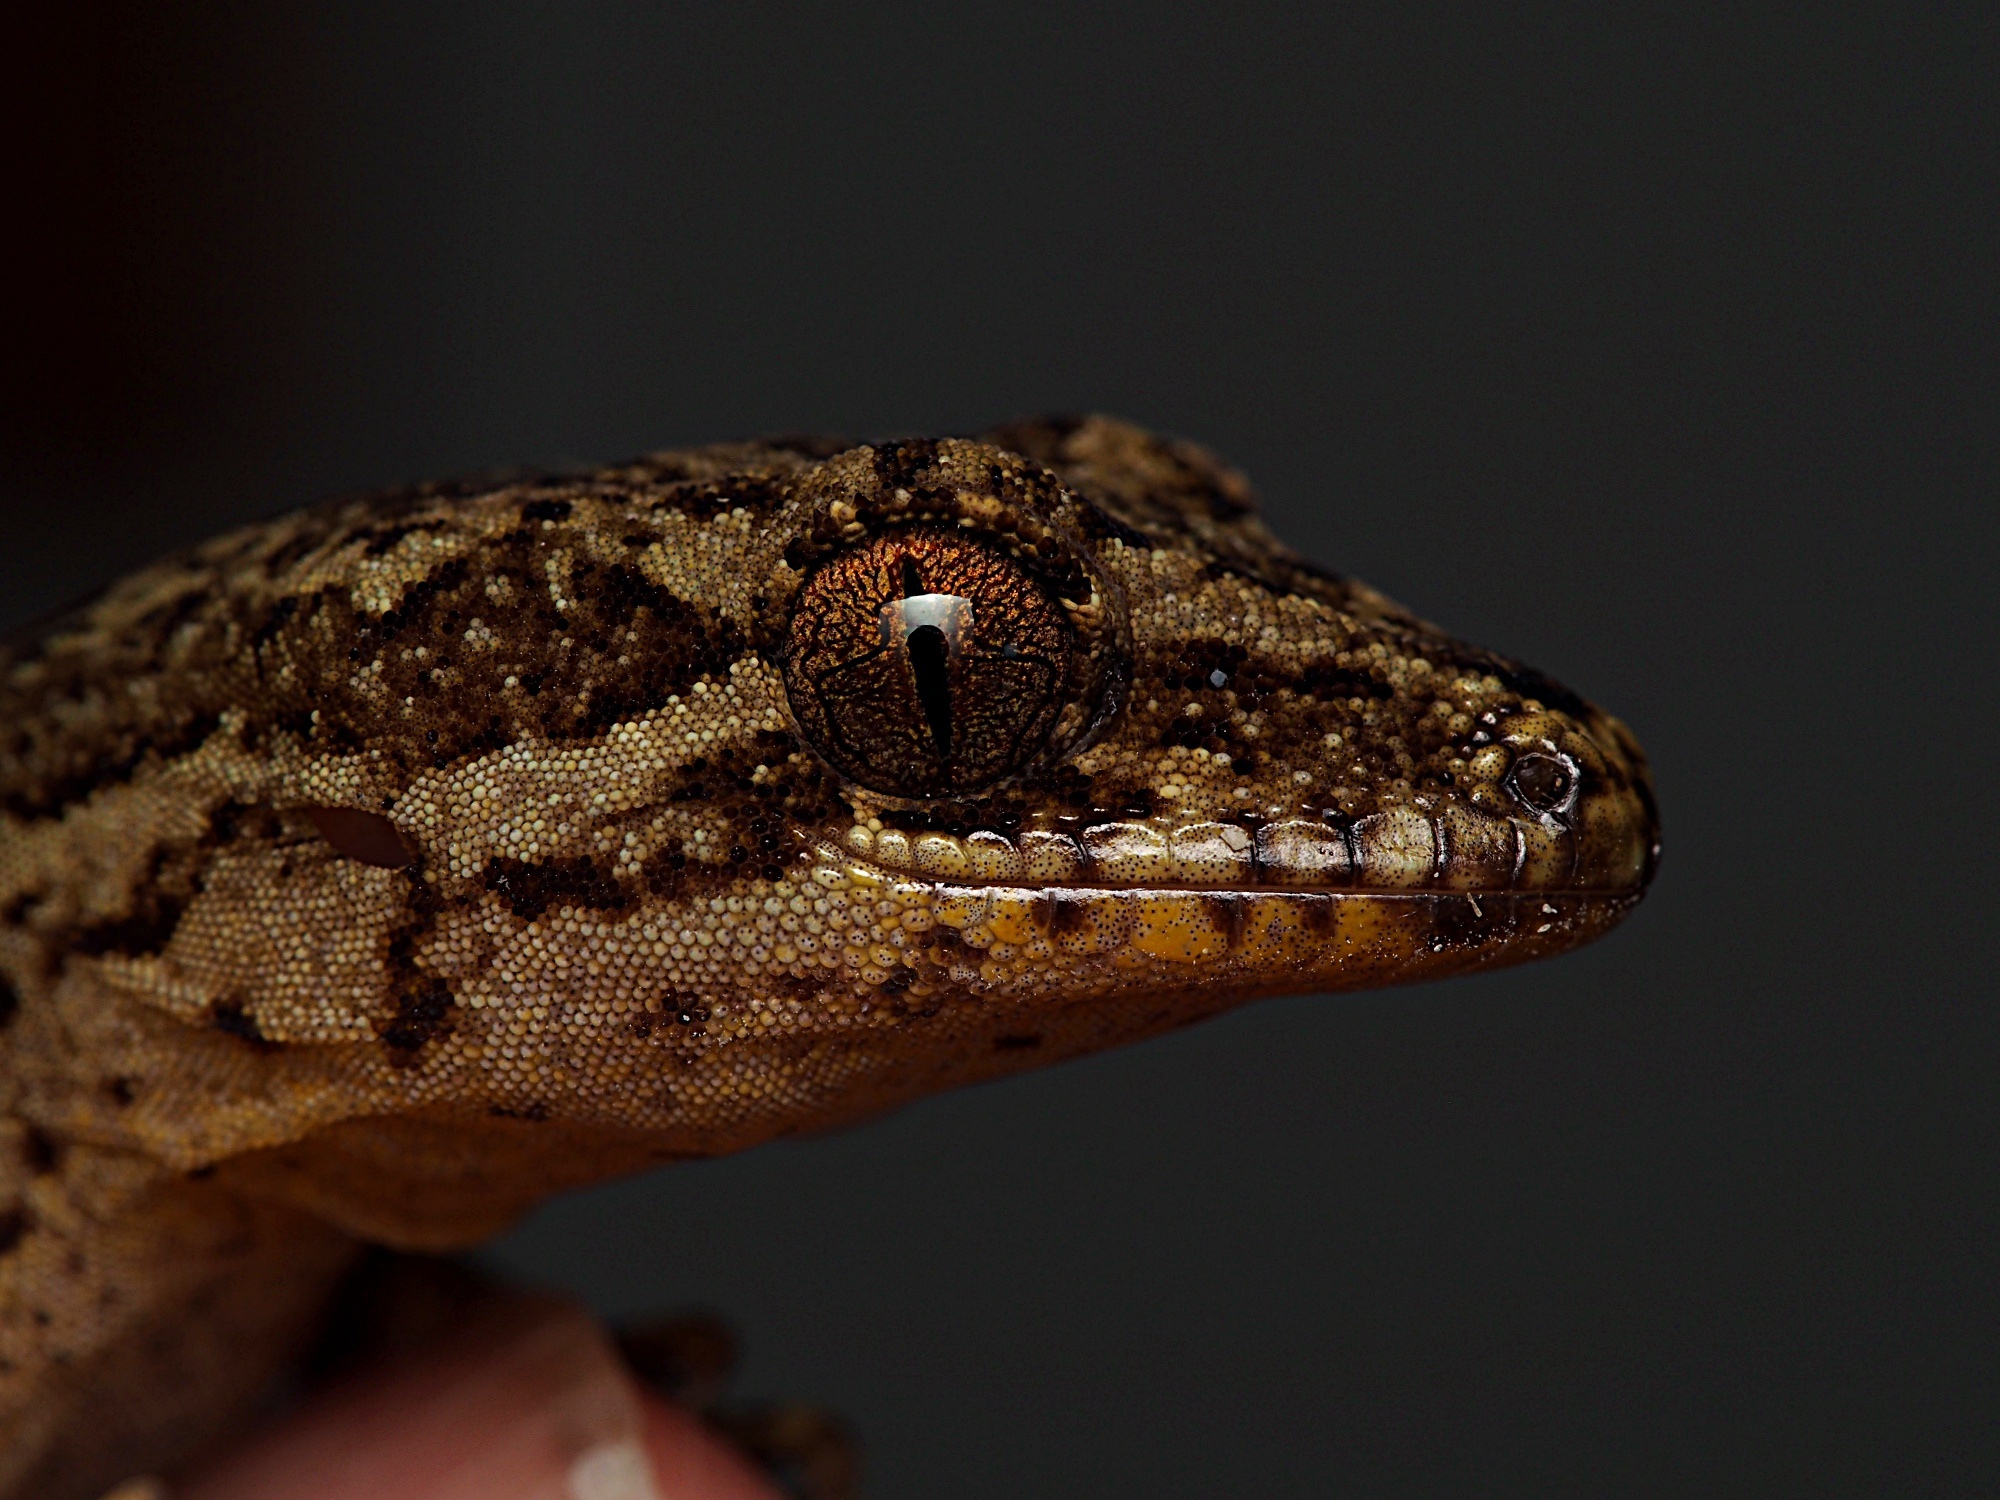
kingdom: Animalia
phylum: Chordata
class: Squamata
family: Diplodactylidae
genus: Dactylocnemis
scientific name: Dactylocnemis pacificus
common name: Pacific gecko
